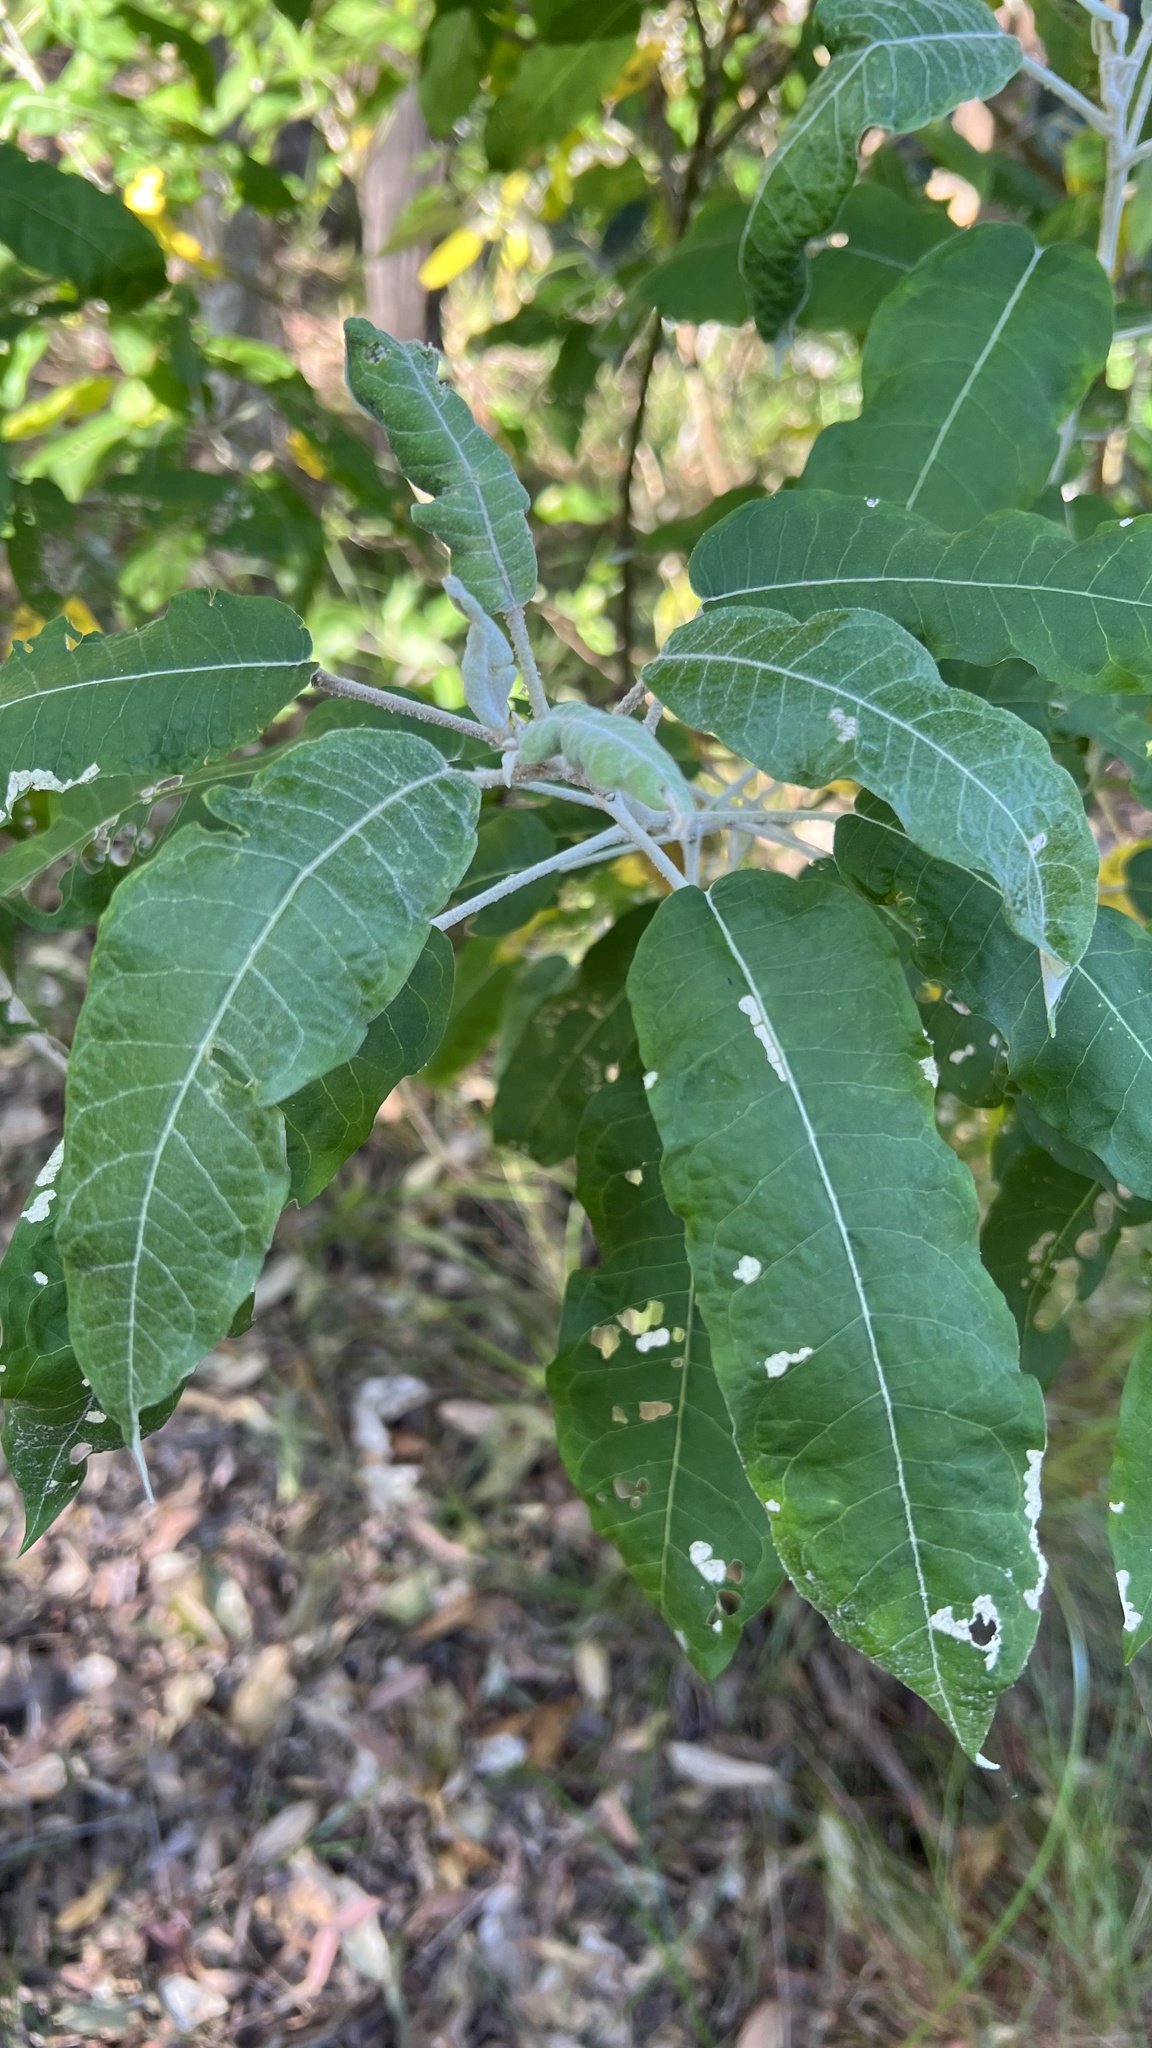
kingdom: Plantae
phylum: Tracheophyta
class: Magnoliopsida
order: Apiales
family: Araliaceae
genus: Astrotricha
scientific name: Astrotricha latifolia
